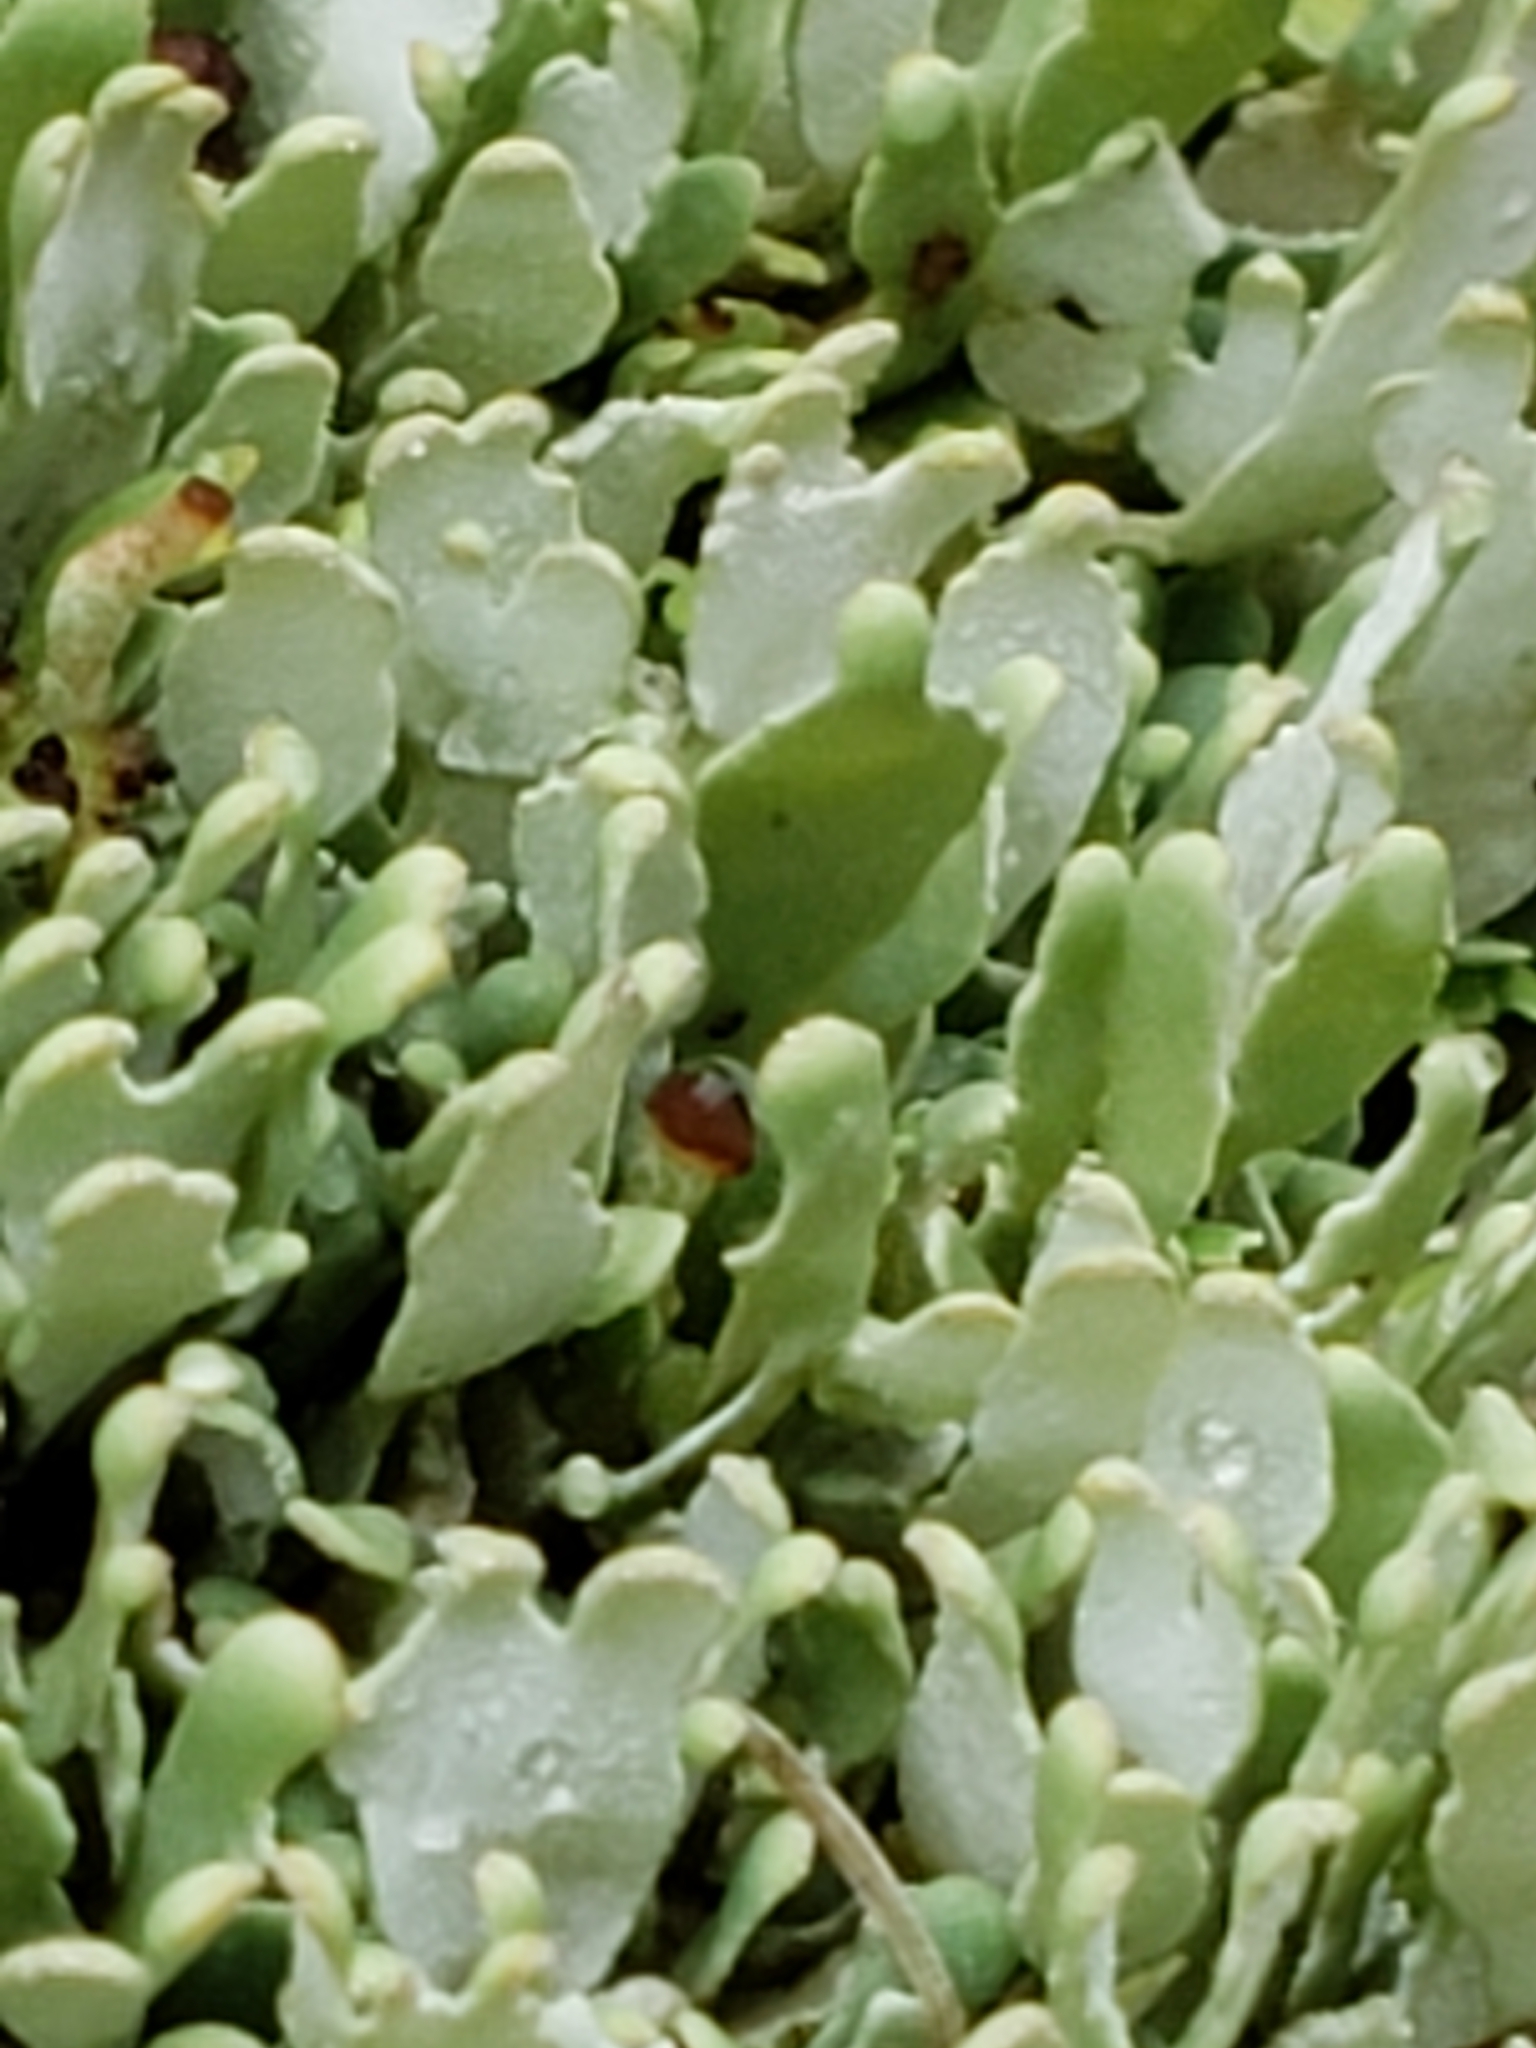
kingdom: Fungi
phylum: Ascomycota
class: Lecanoromycetes
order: Lecanorales
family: Cladoniaceae
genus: Cladonia
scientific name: Cladonia apodocarpa
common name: Stalkless cladonia
